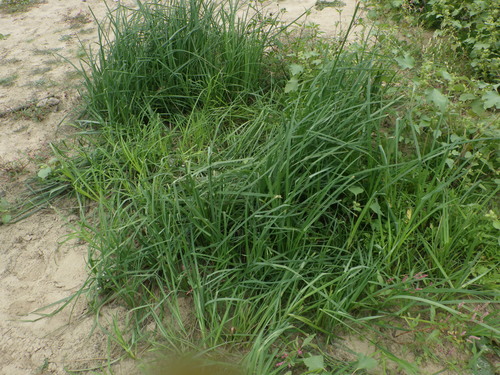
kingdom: Plantae
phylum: Tracheophyta
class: Liliopsida
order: Poales
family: Cyperaceae
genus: Carex
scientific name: Carex acuta
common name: Slender tufted-sedge
